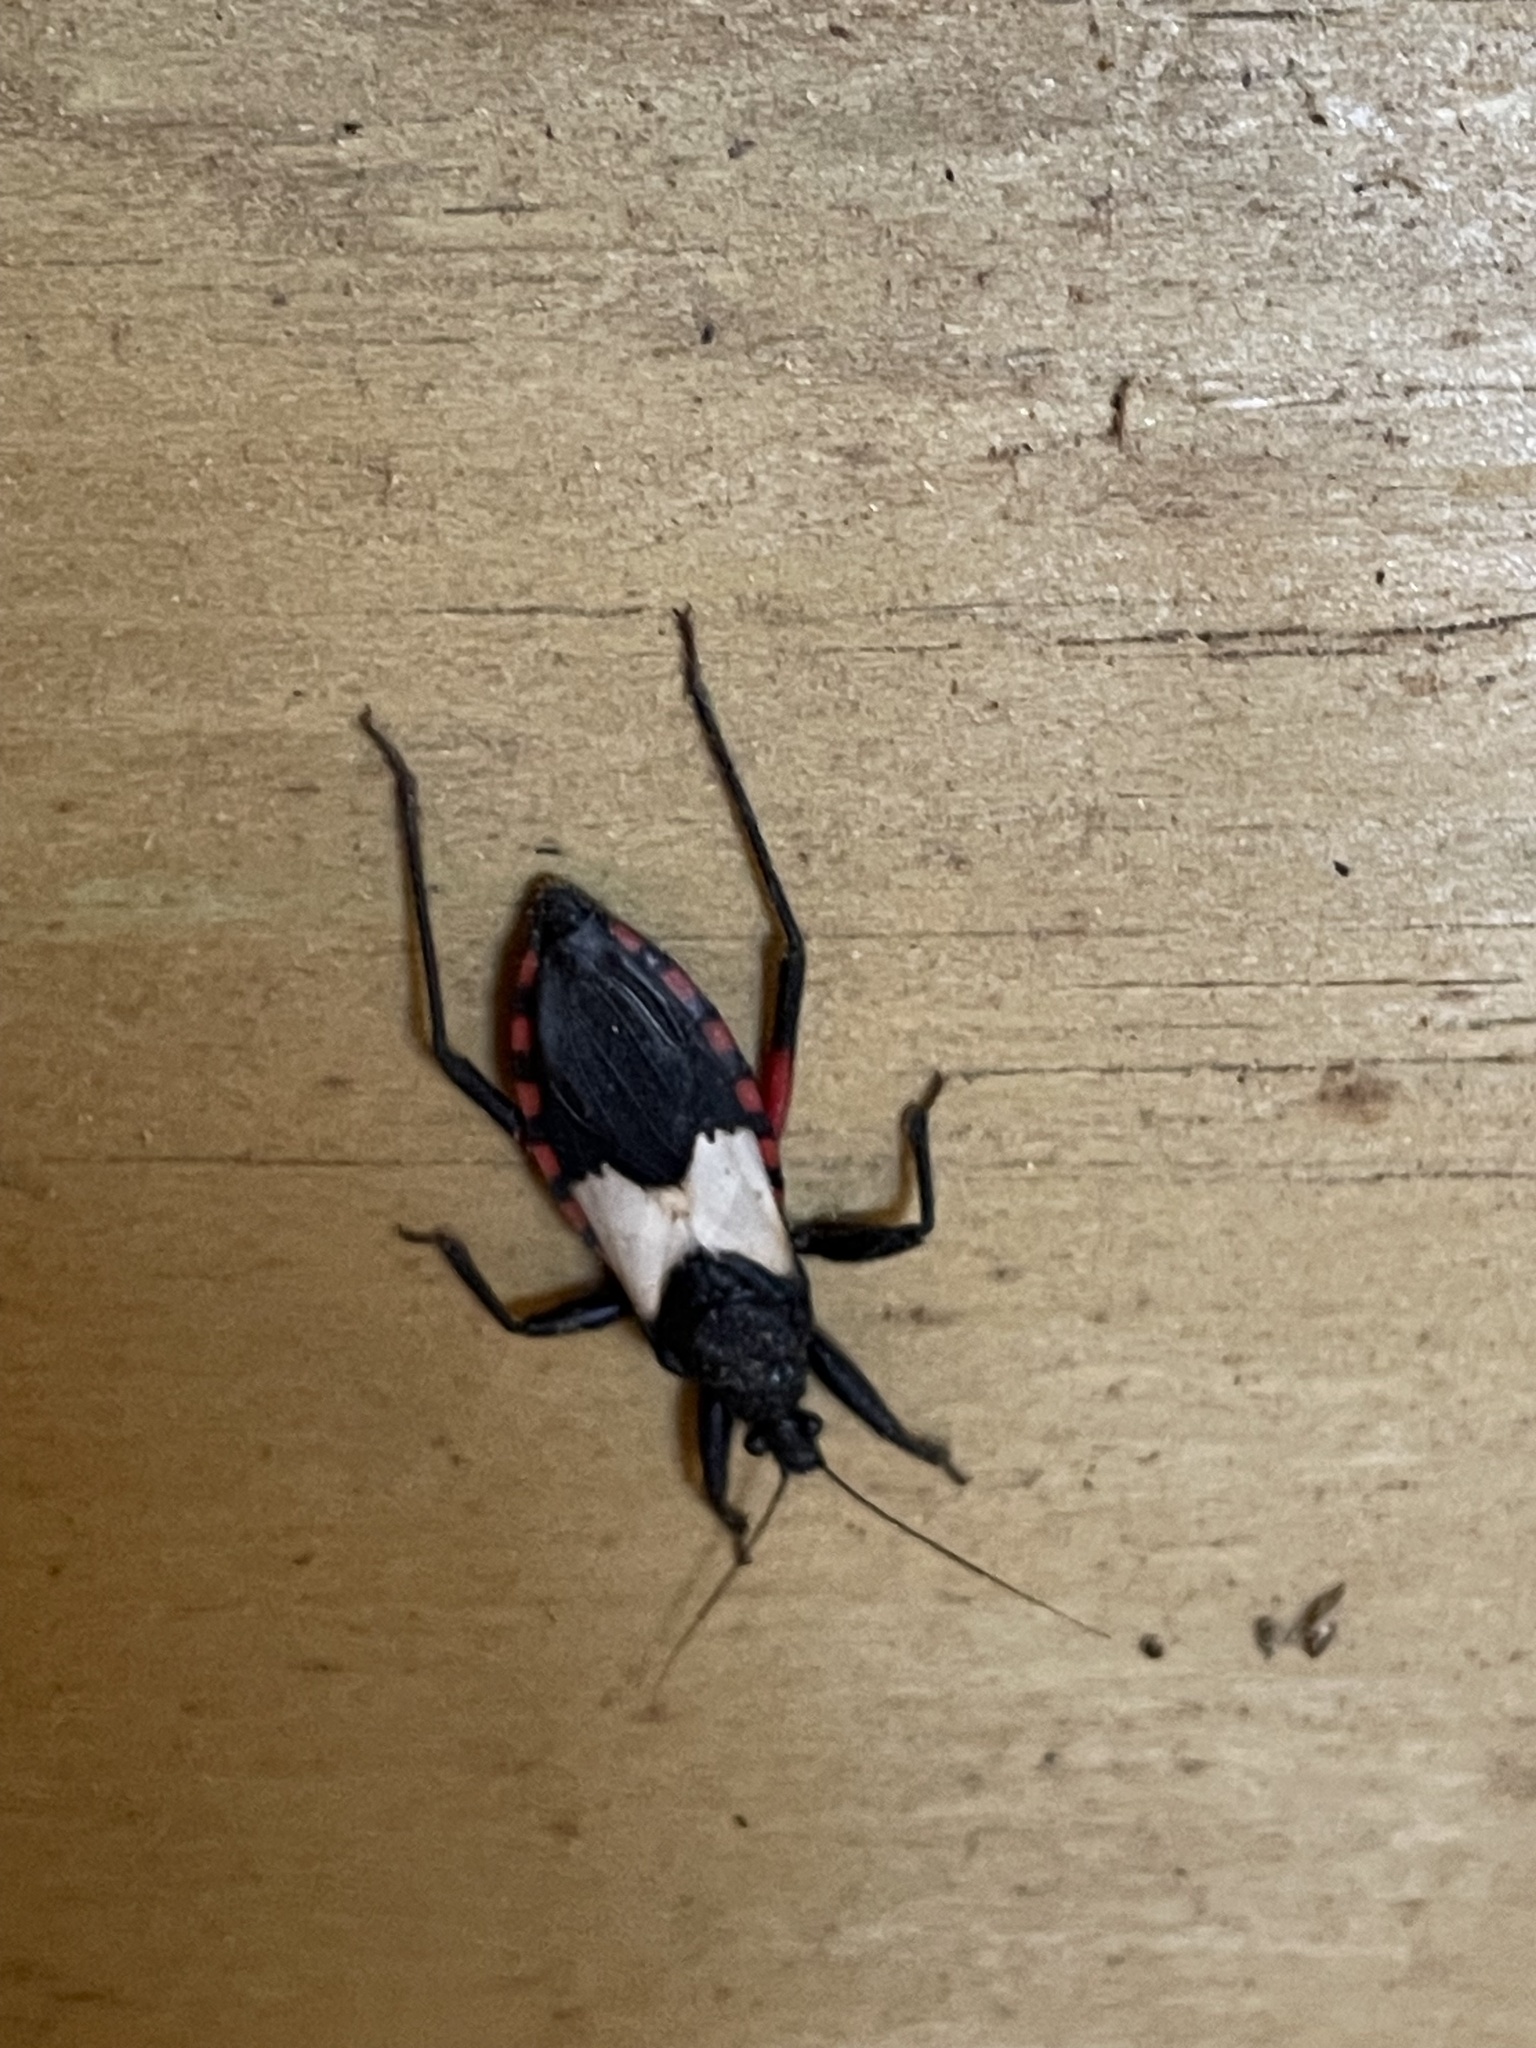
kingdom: Animalia
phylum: Arthropoda
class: Insecta
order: Hemiptera
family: Reduviidae
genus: Microtomus
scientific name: Microtomus purcis
